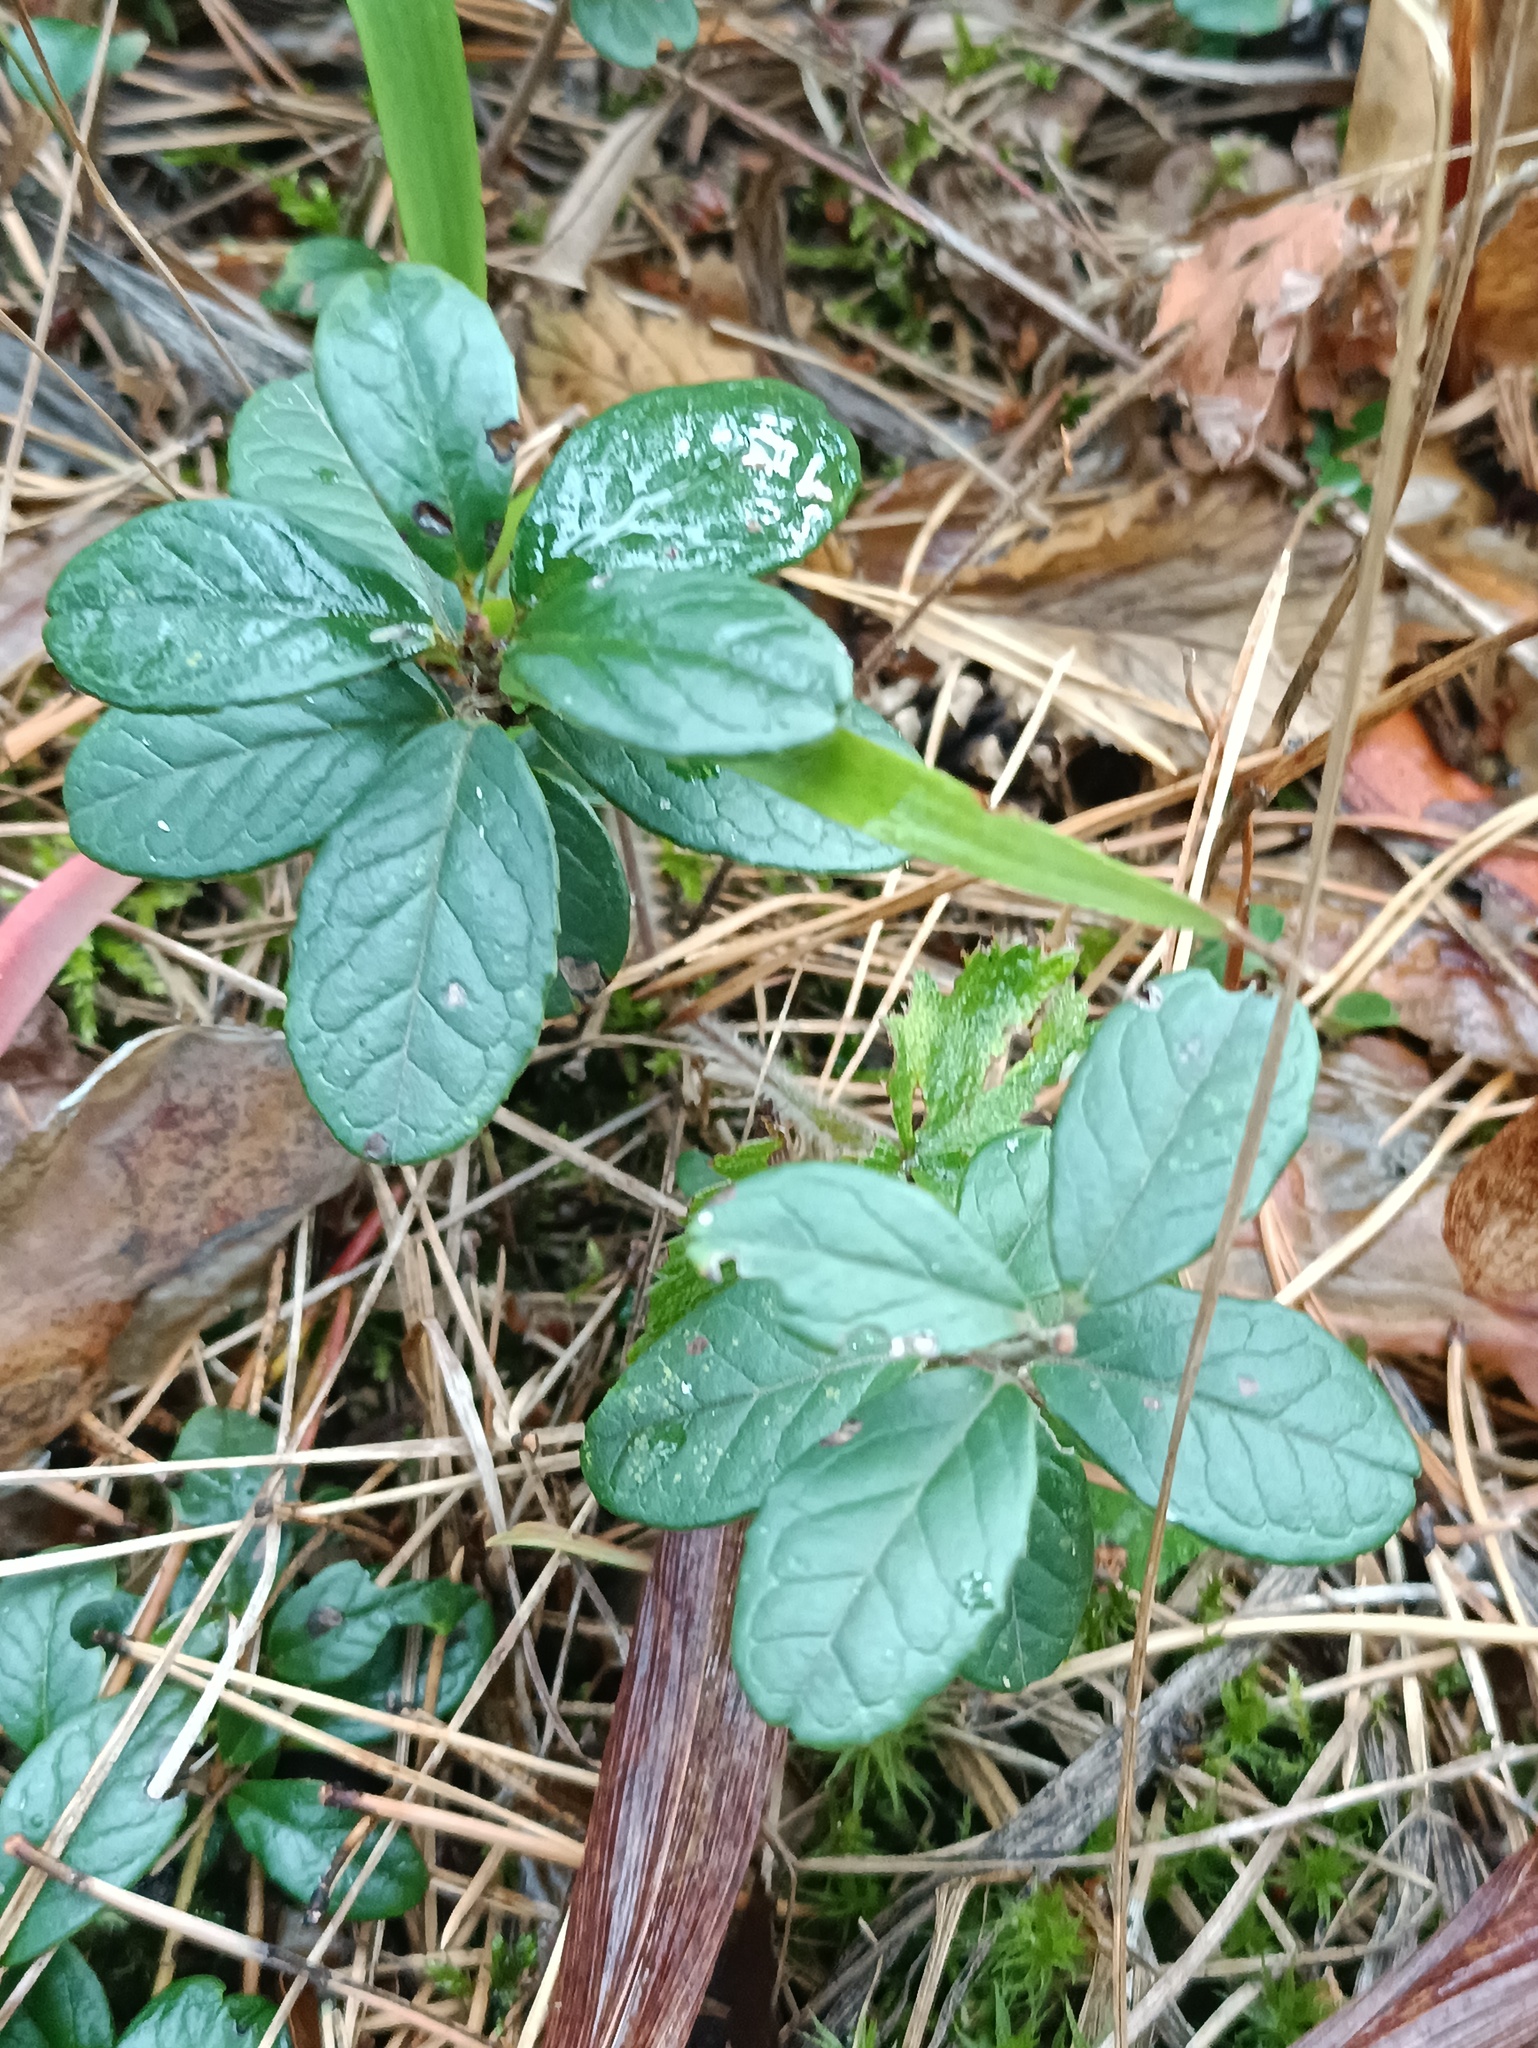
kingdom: Plantae
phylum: Tracheophyta
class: Magnoliopsida
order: Ericales
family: Ericaceae
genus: Vaccinium
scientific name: Vaccinium vitis-idaea
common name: Cowberry
